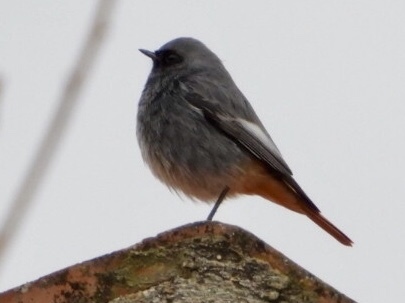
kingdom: Animalia
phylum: Chordata
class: Aves
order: Passeriformes
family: Muscicapidae
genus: Phoenicurus
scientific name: Phoenicurus ochruros
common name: Black redstart
